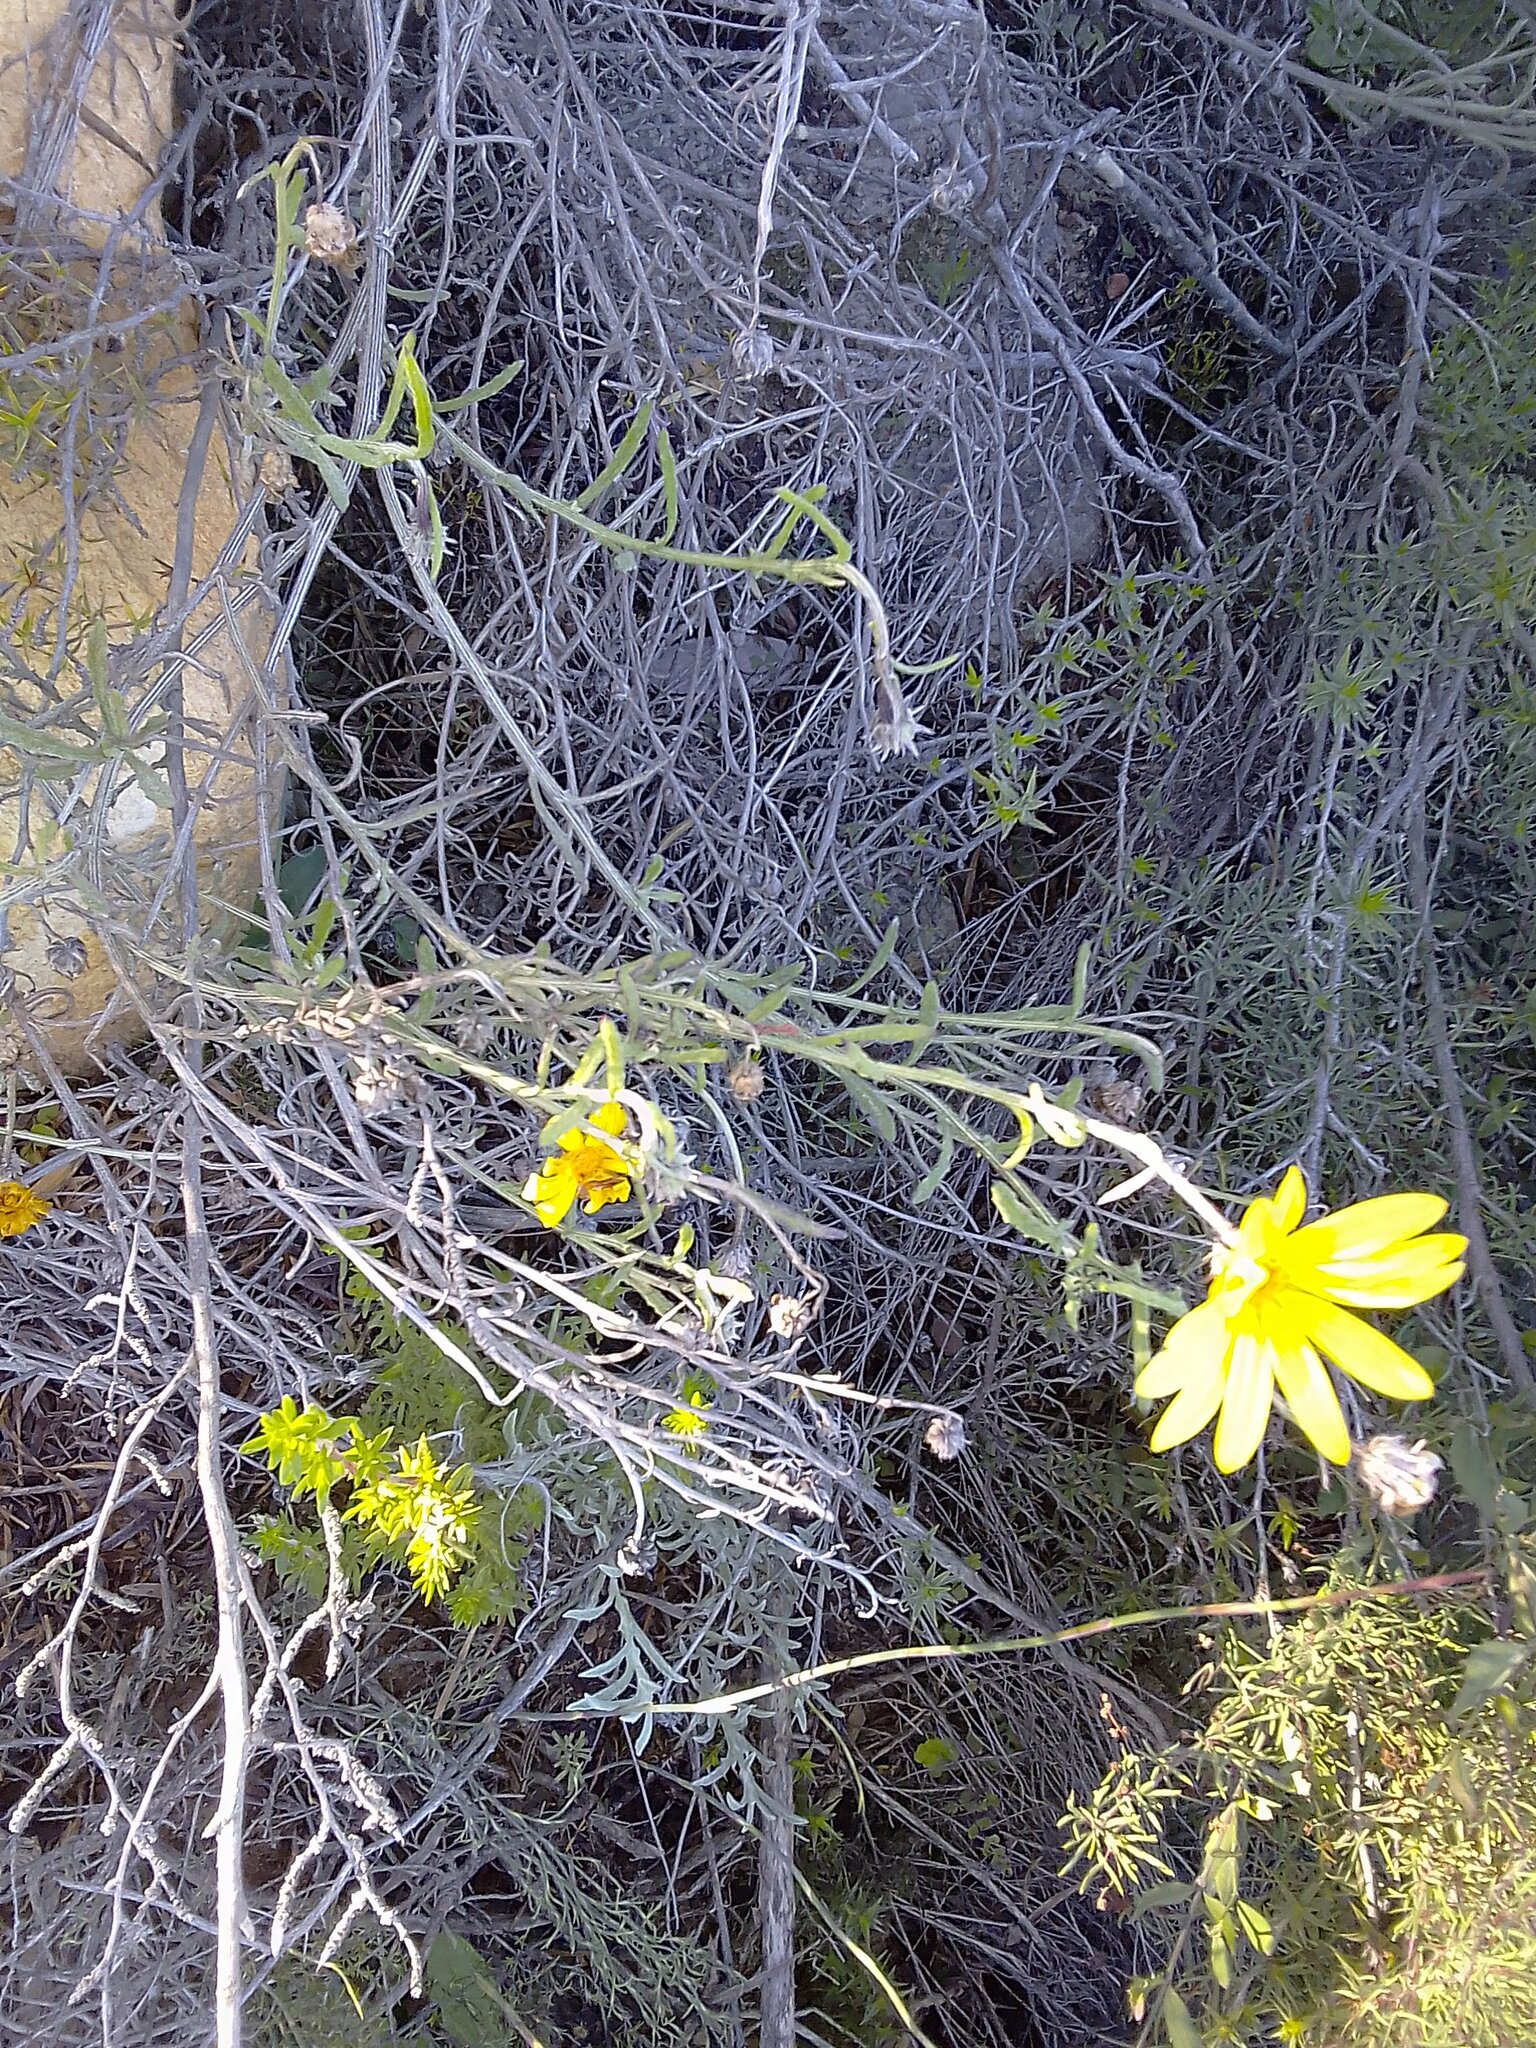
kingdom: Plantae
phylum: Tracheophyta
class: Magnoliopsida
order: Asterales
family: Asteraceae
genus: Arctotis
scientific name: Arctotis scabra
